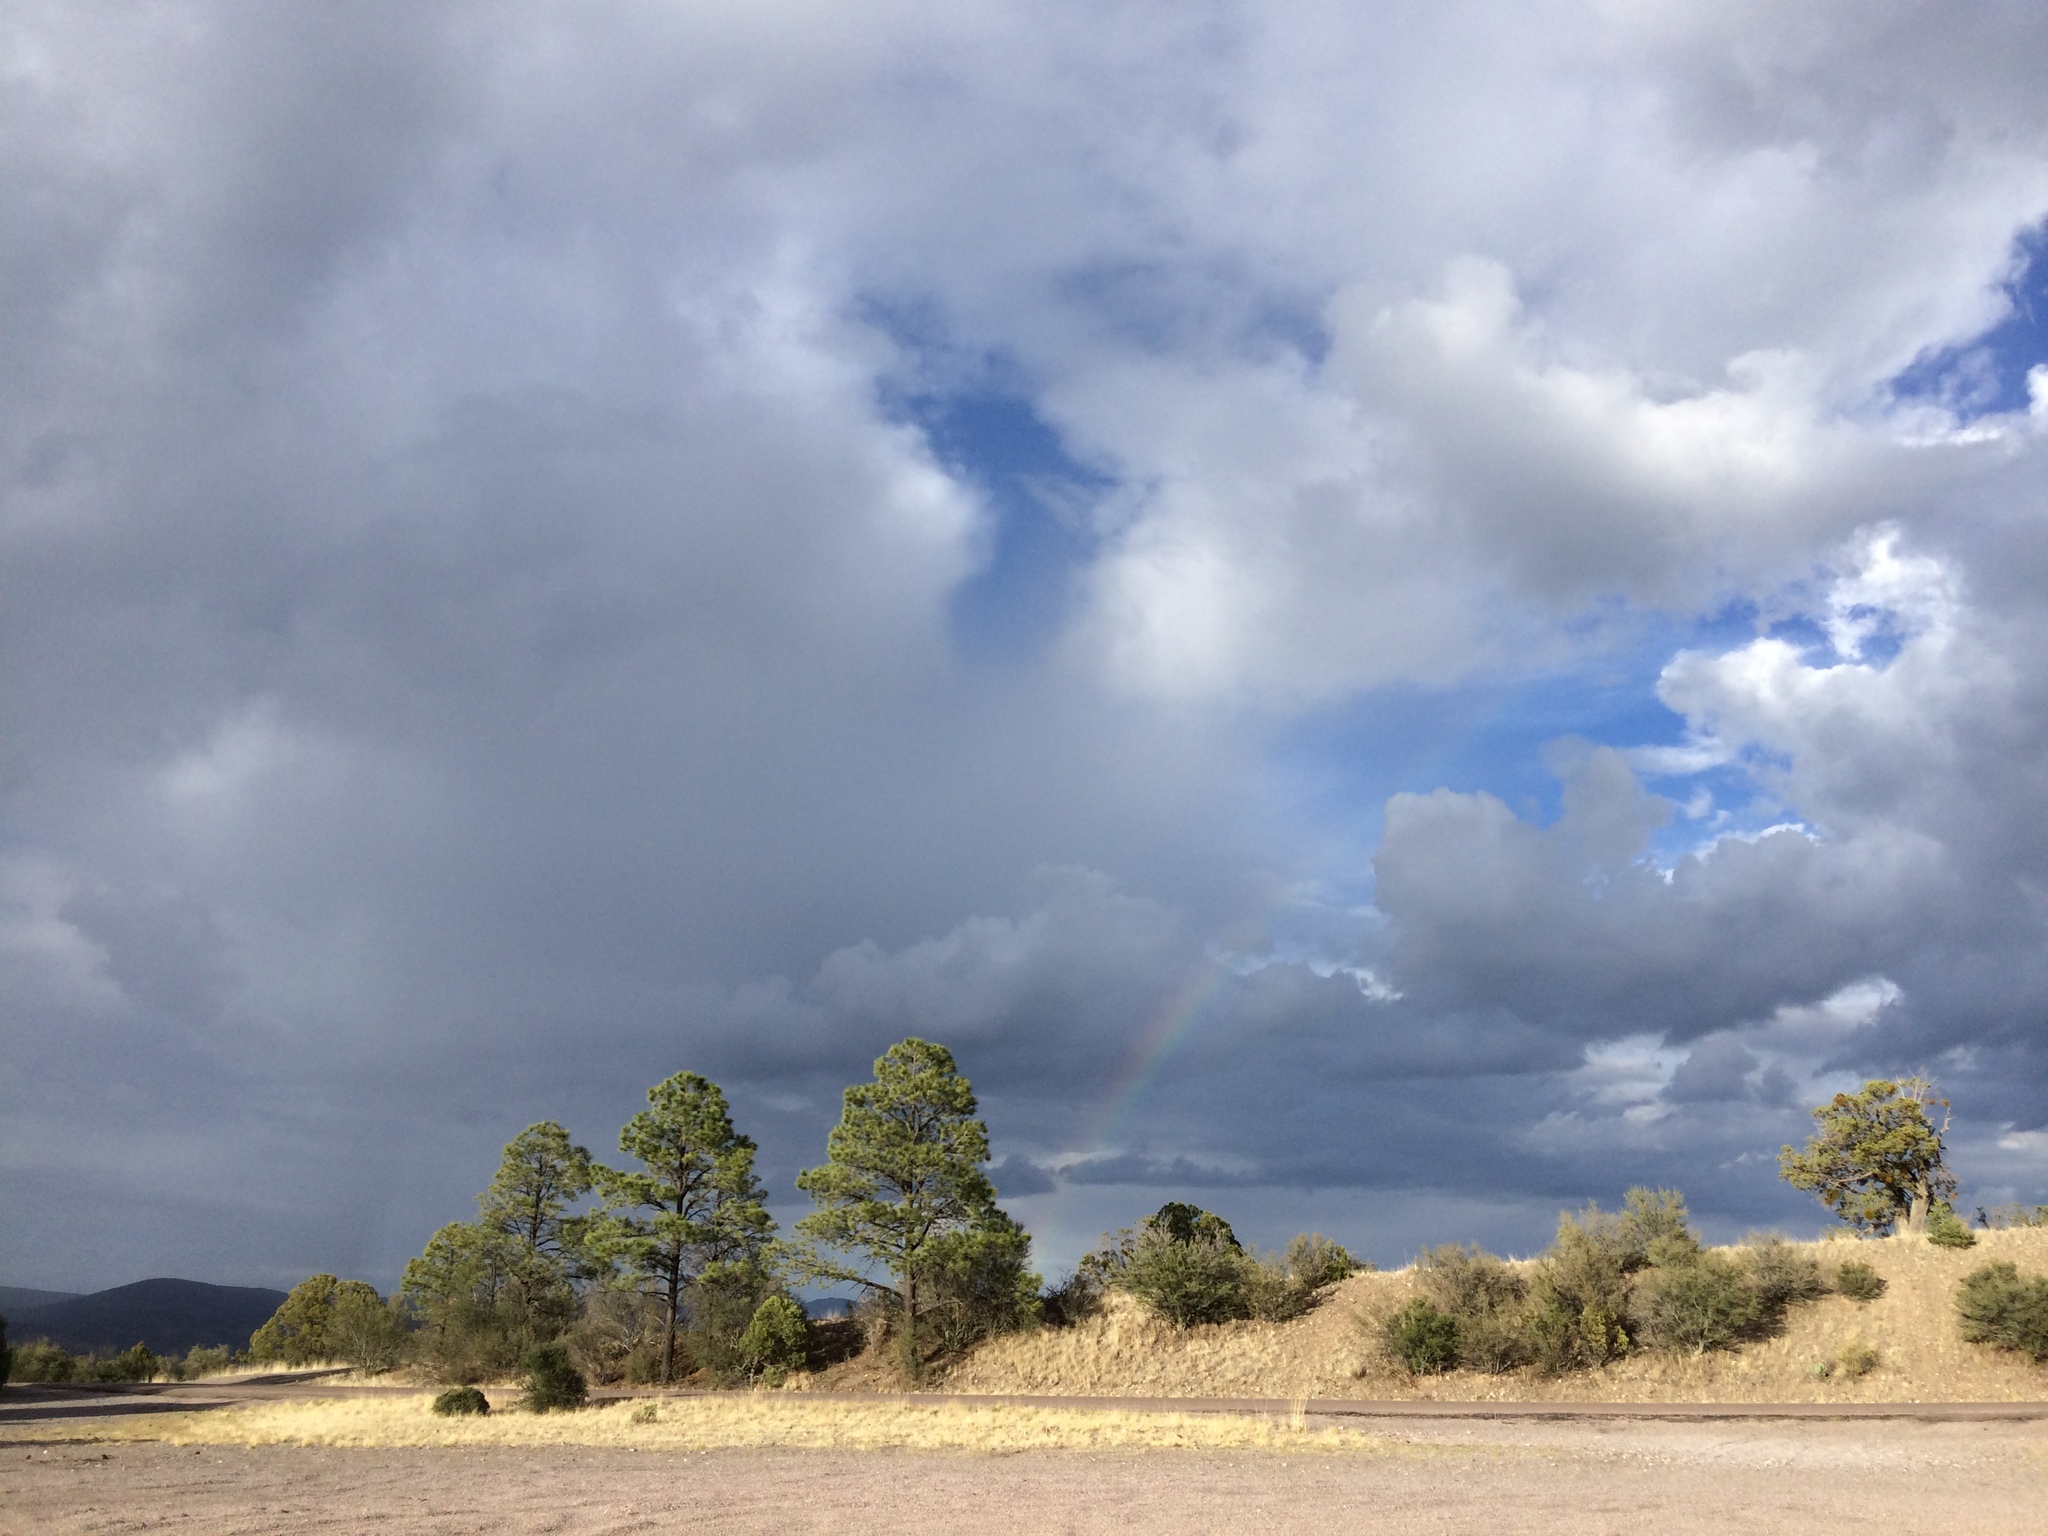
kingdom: Plantae
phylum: Tracheophyta
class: Pinopsida
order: Pinales
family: Pinaceae
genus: Pinus
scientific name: Pinus ponderosa
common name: Western yellow-pine
